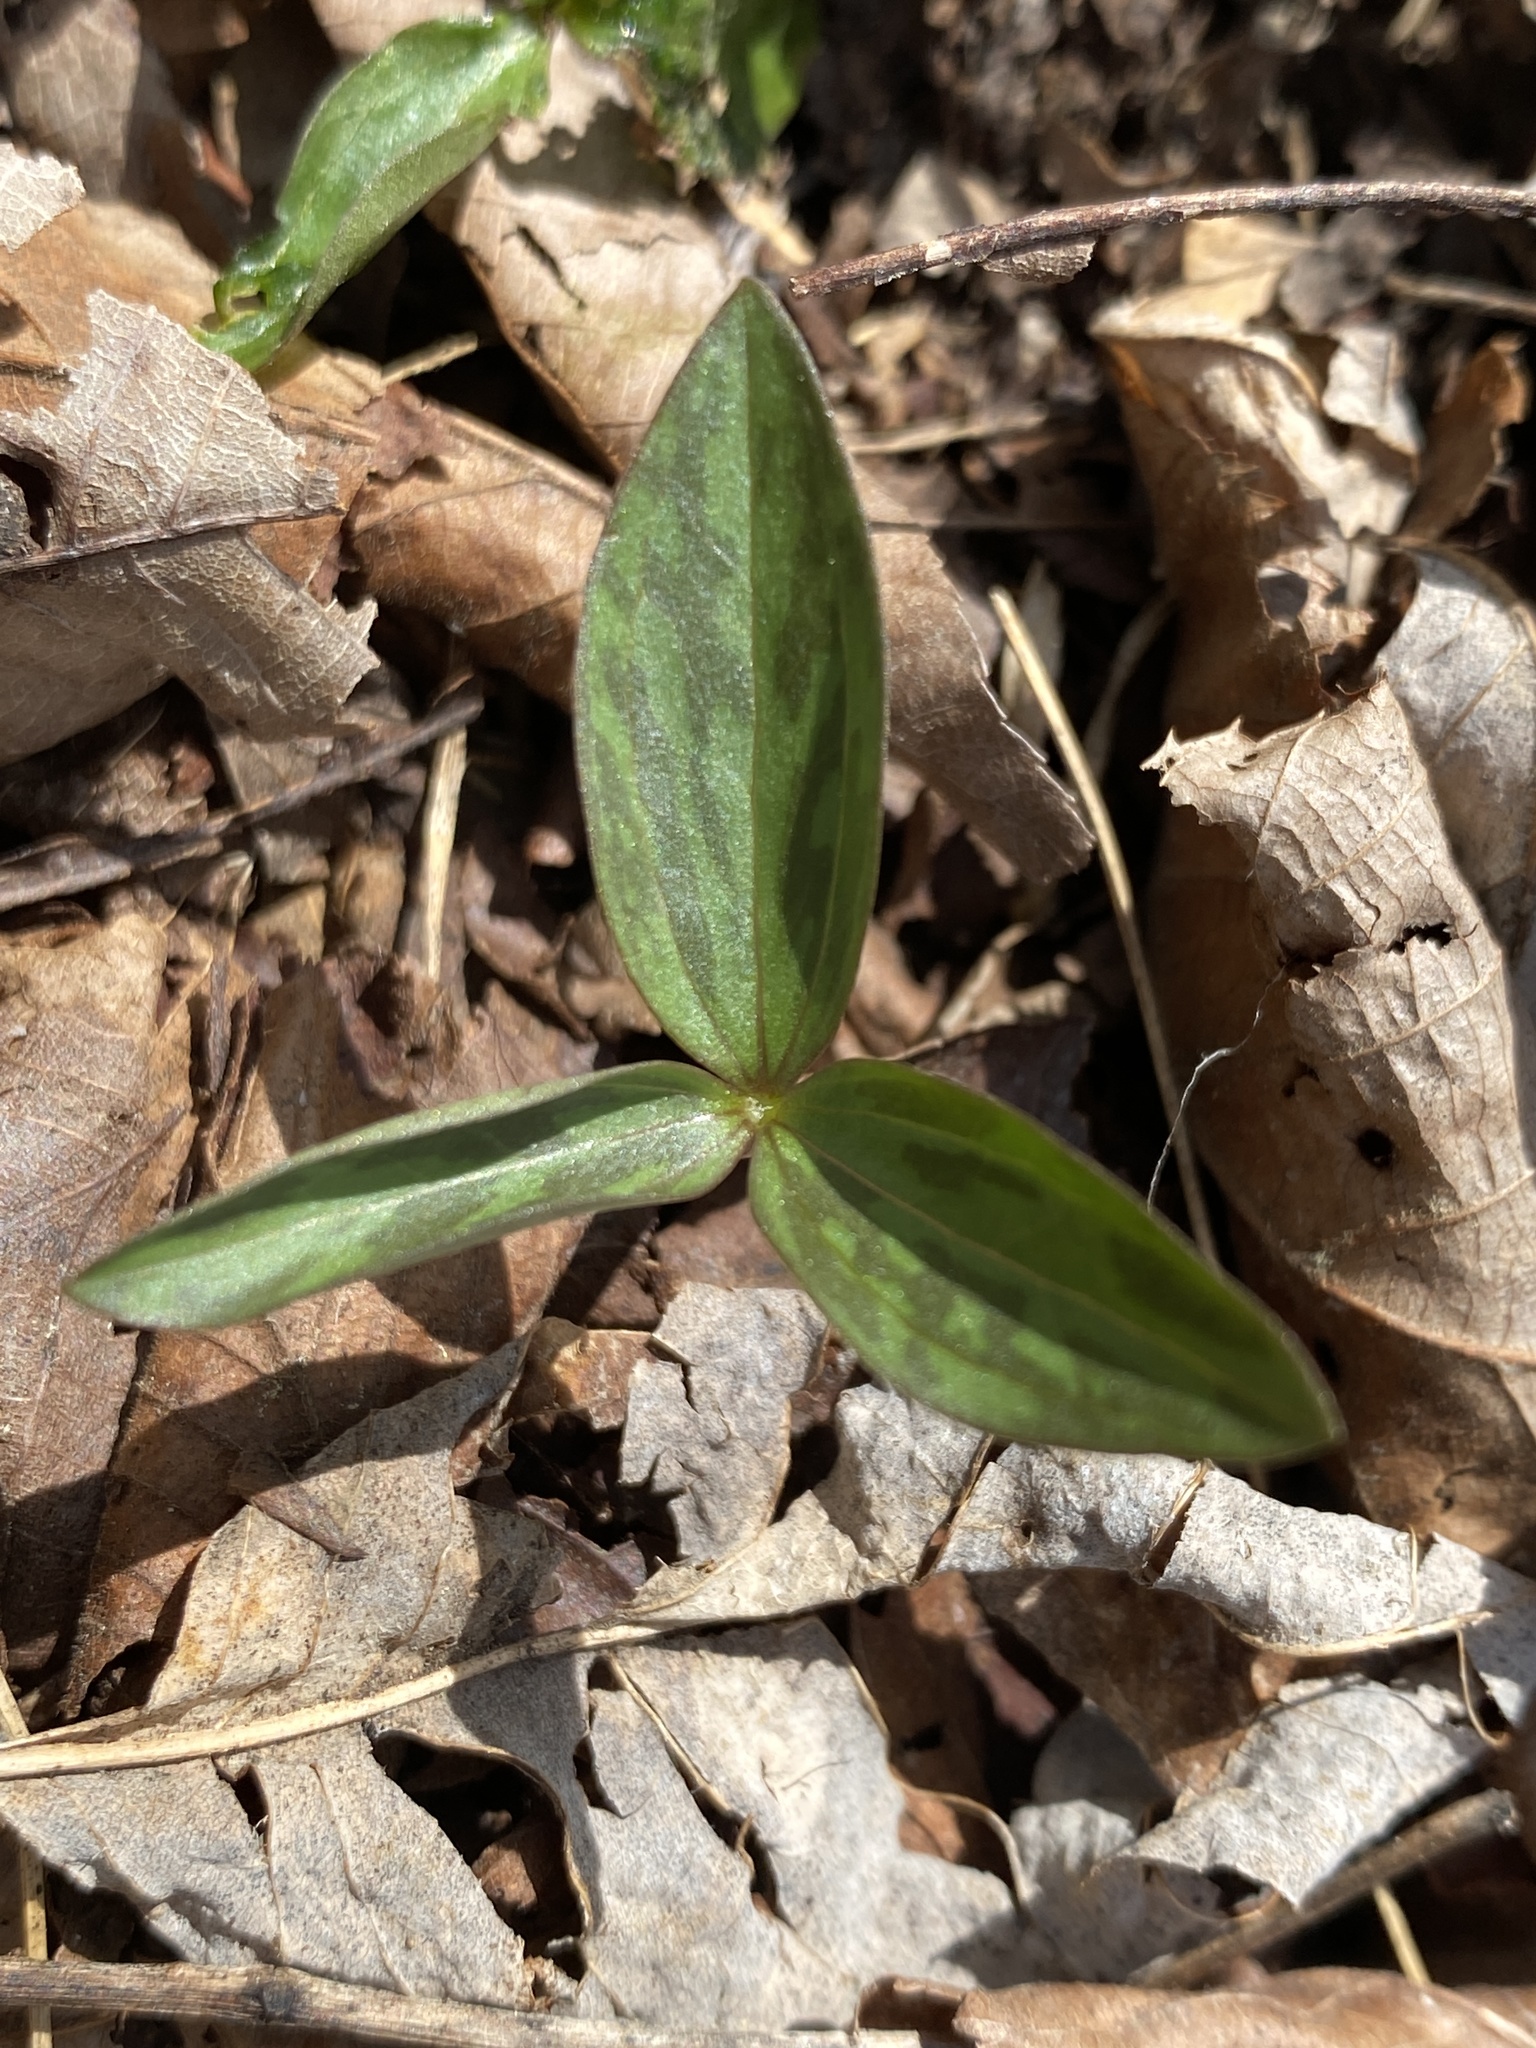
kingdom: Plantae
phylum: Tracheophyta
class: Liliopsida
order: Liliales
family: Melanthiaceae
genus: Trillium
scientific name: Trillium recurvatum
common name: Bloody butcher
